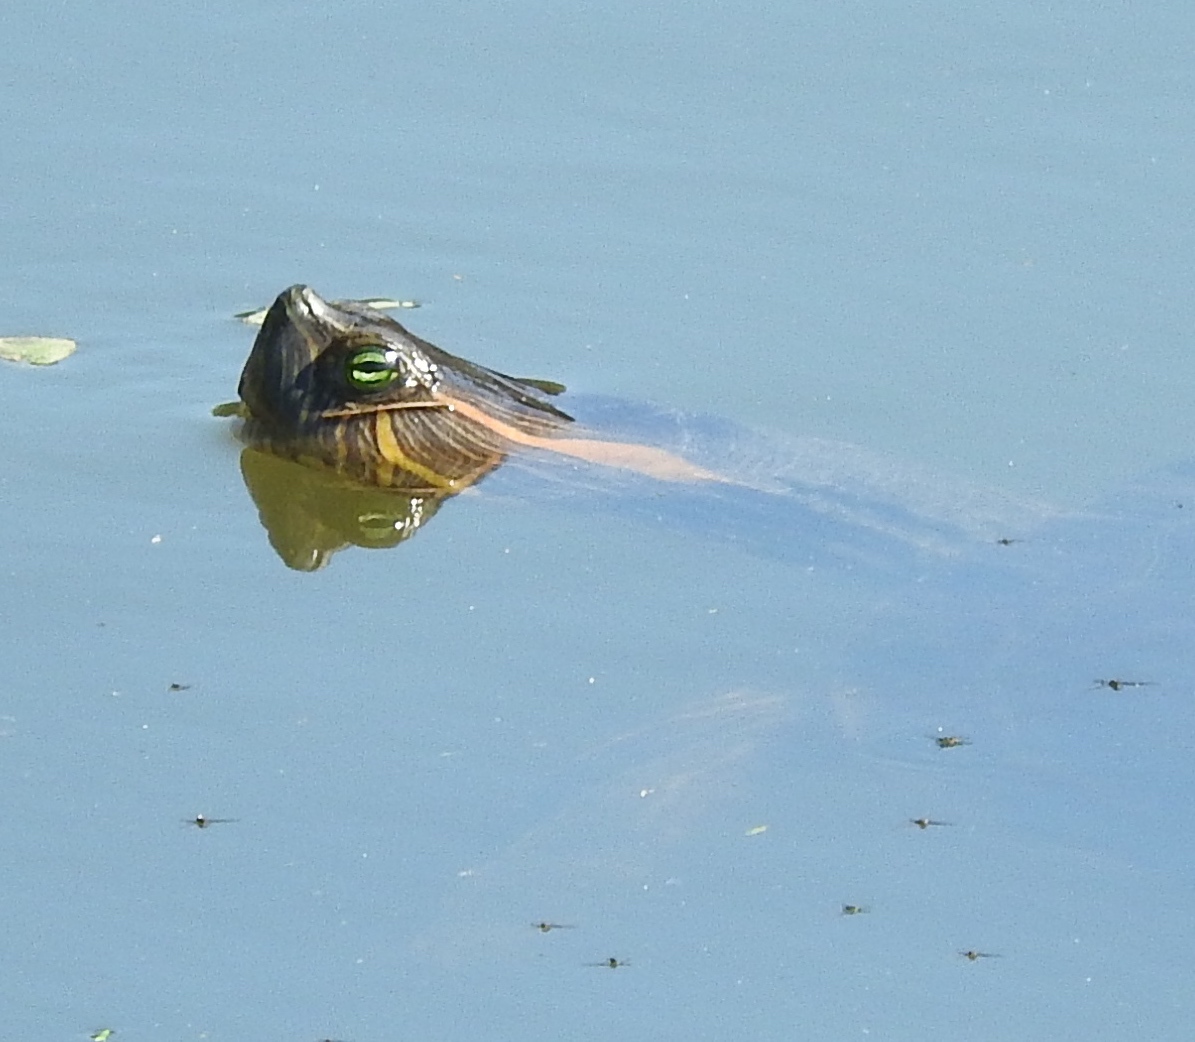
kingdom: Animalia
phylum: Chordata
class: Testudines
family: Emydidae
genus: Trachemys
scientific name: Trachemys ornata
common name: Ornate slider
